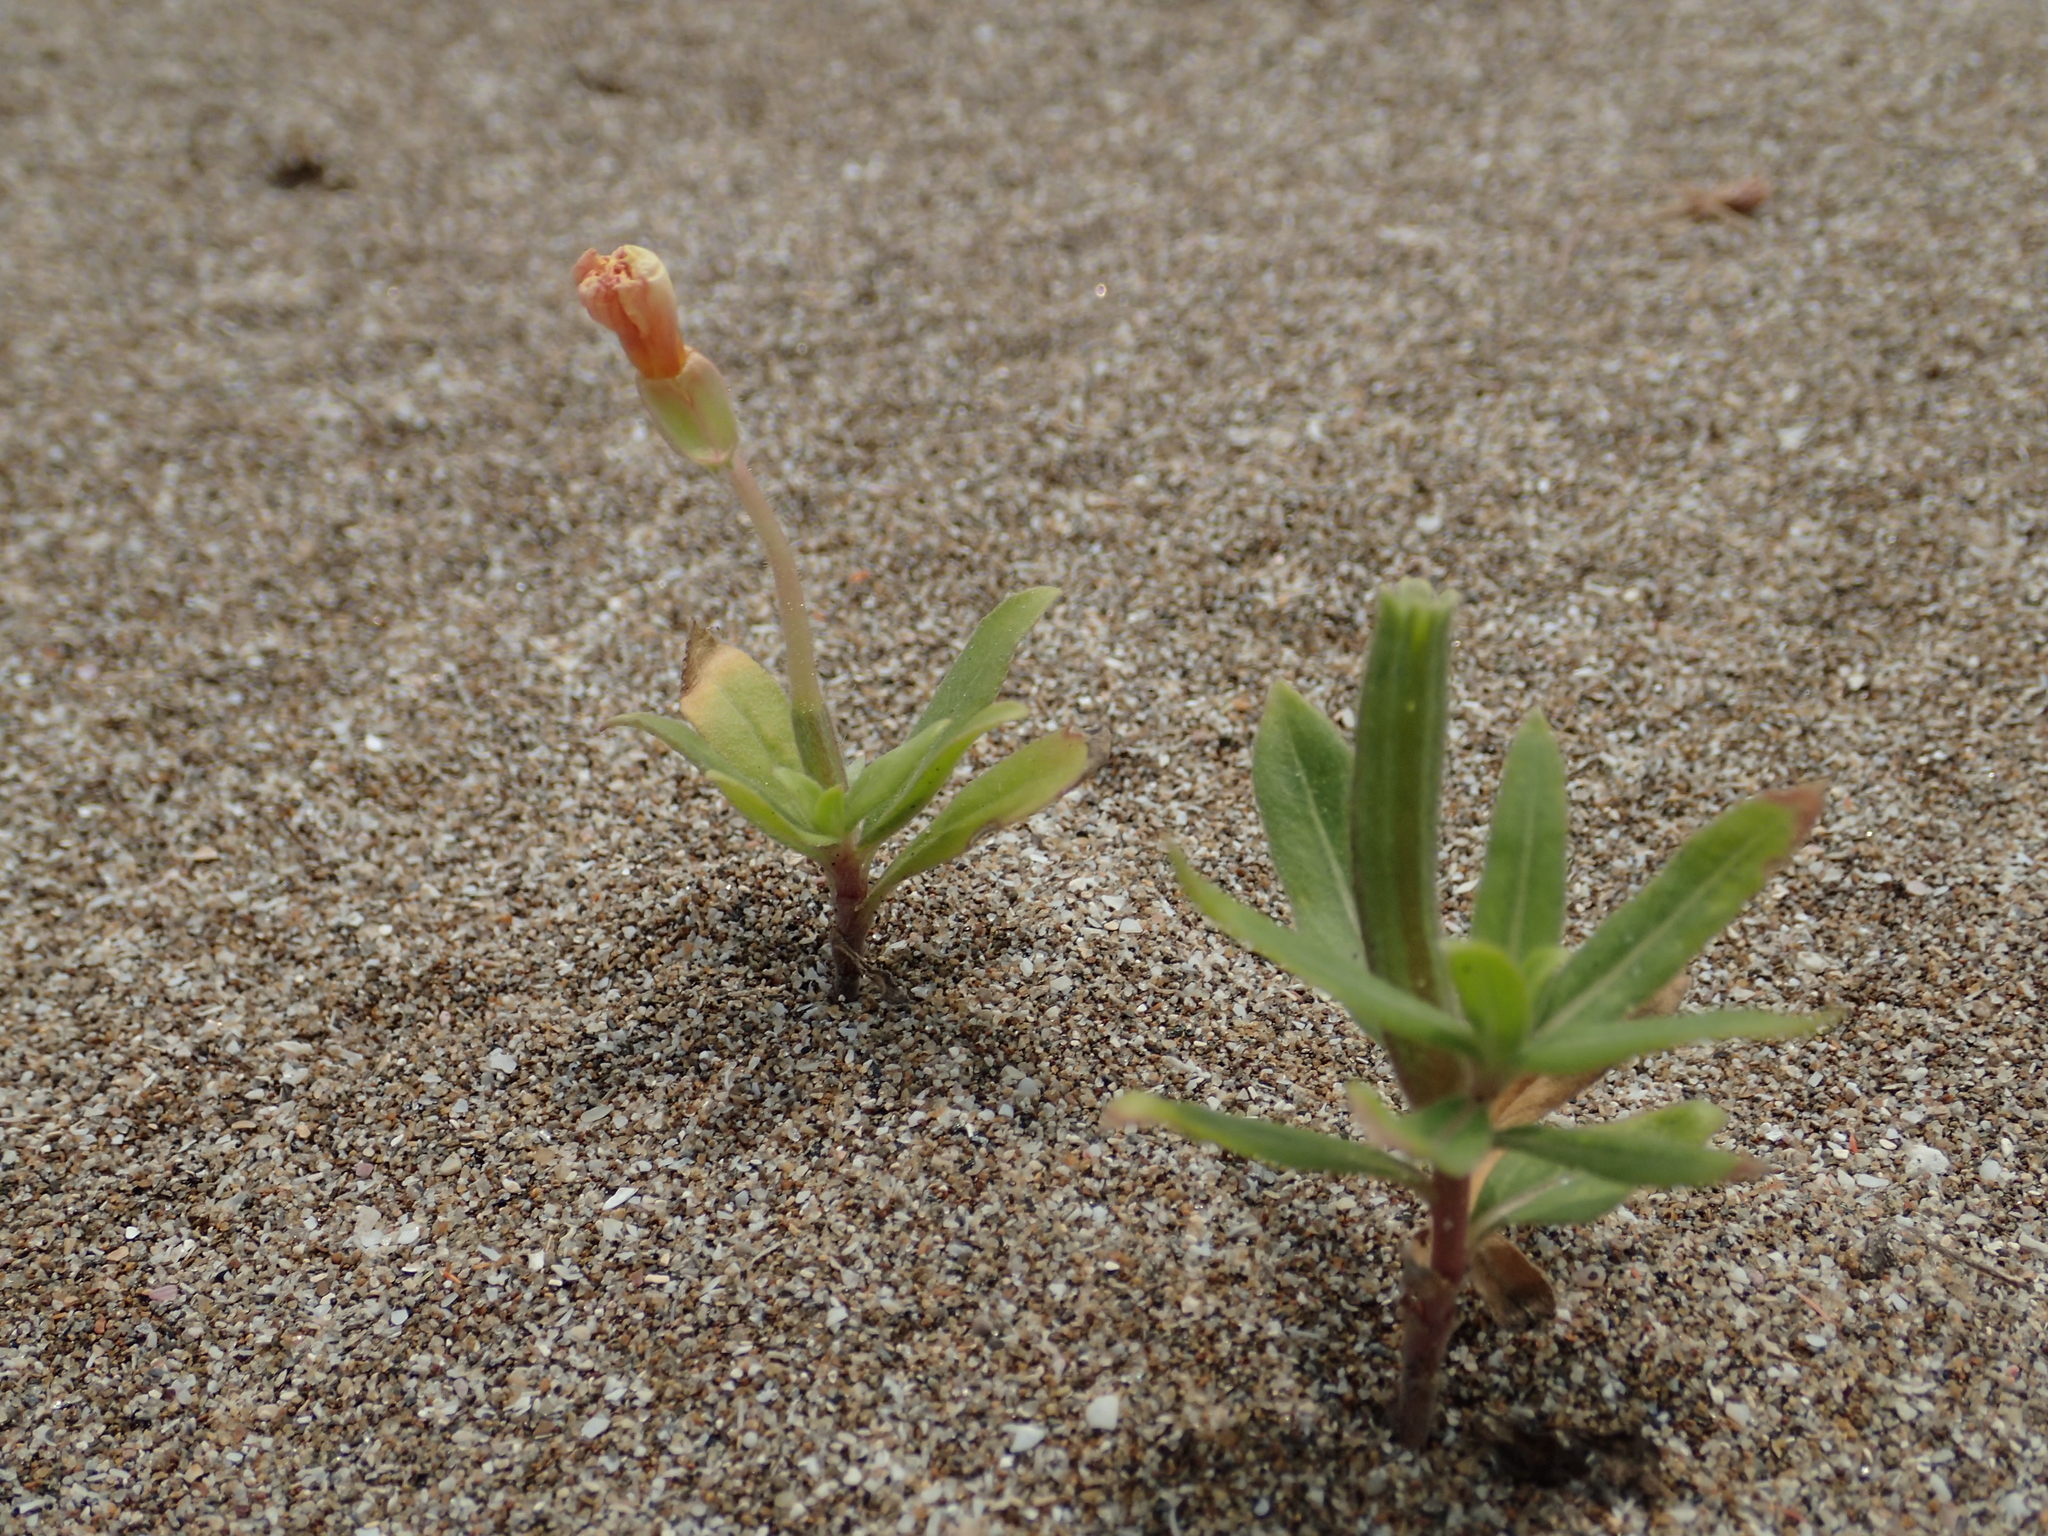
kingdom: Plantae
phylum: Tracheophyta
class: Magnoliopsida
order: Myrtales
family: Onagraceae
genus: Oenothera
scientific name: Oenothera laciniata
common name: Cut-leaved evening-primrose
